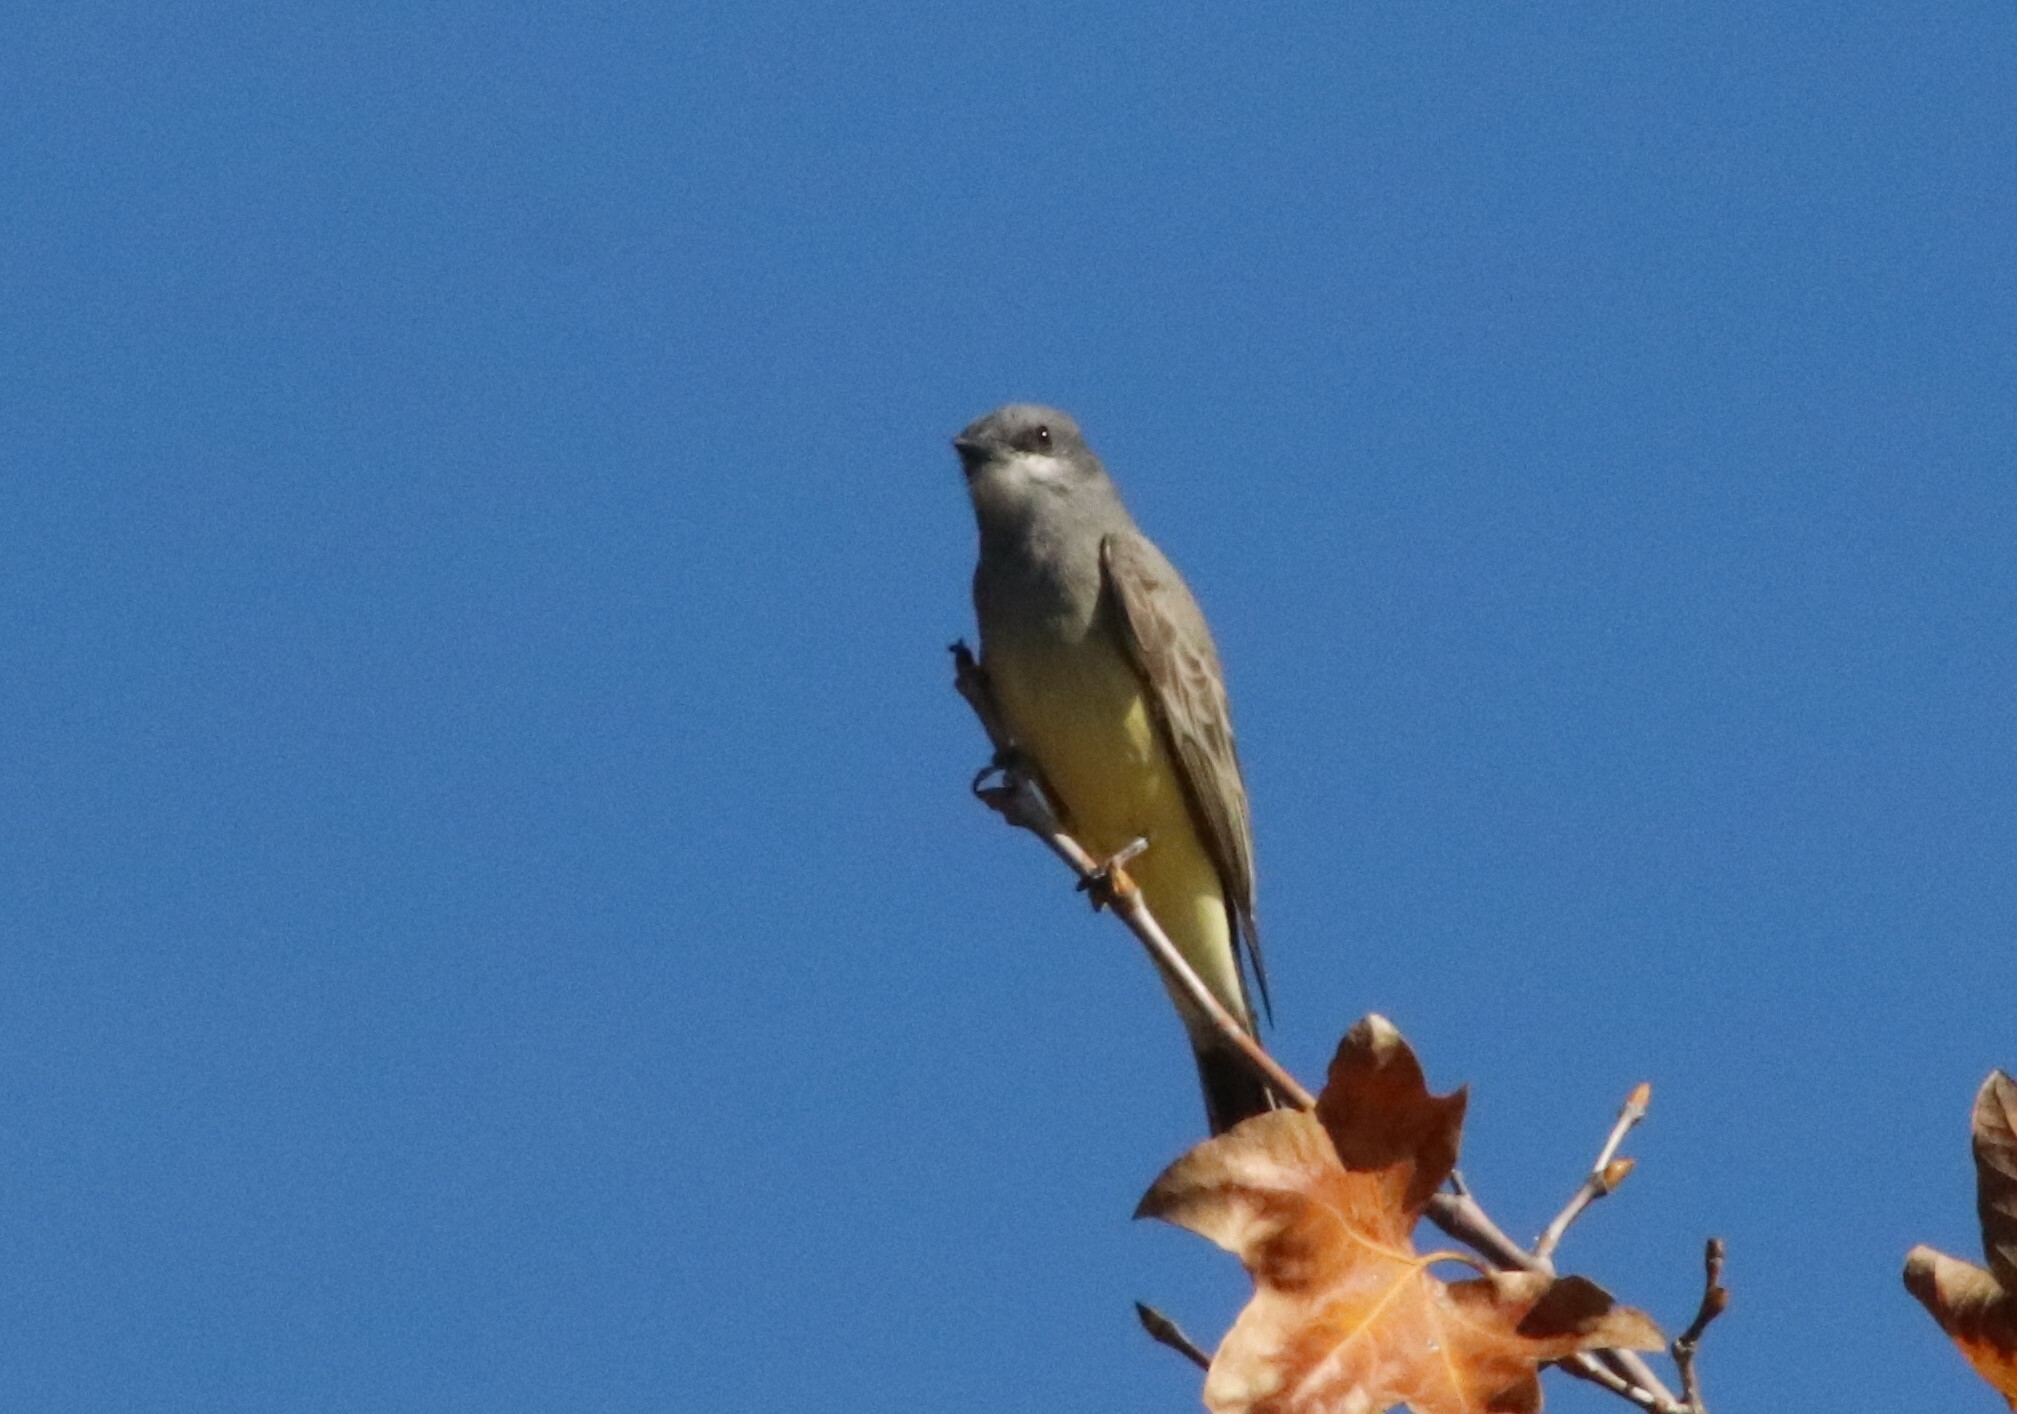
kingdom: Animalia
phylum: Chordata
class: Aves
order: Passeriformes
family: Tyrannidae
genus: Tyrannus
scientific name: Tyrannus vociferans
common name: Cassin's kingbird
